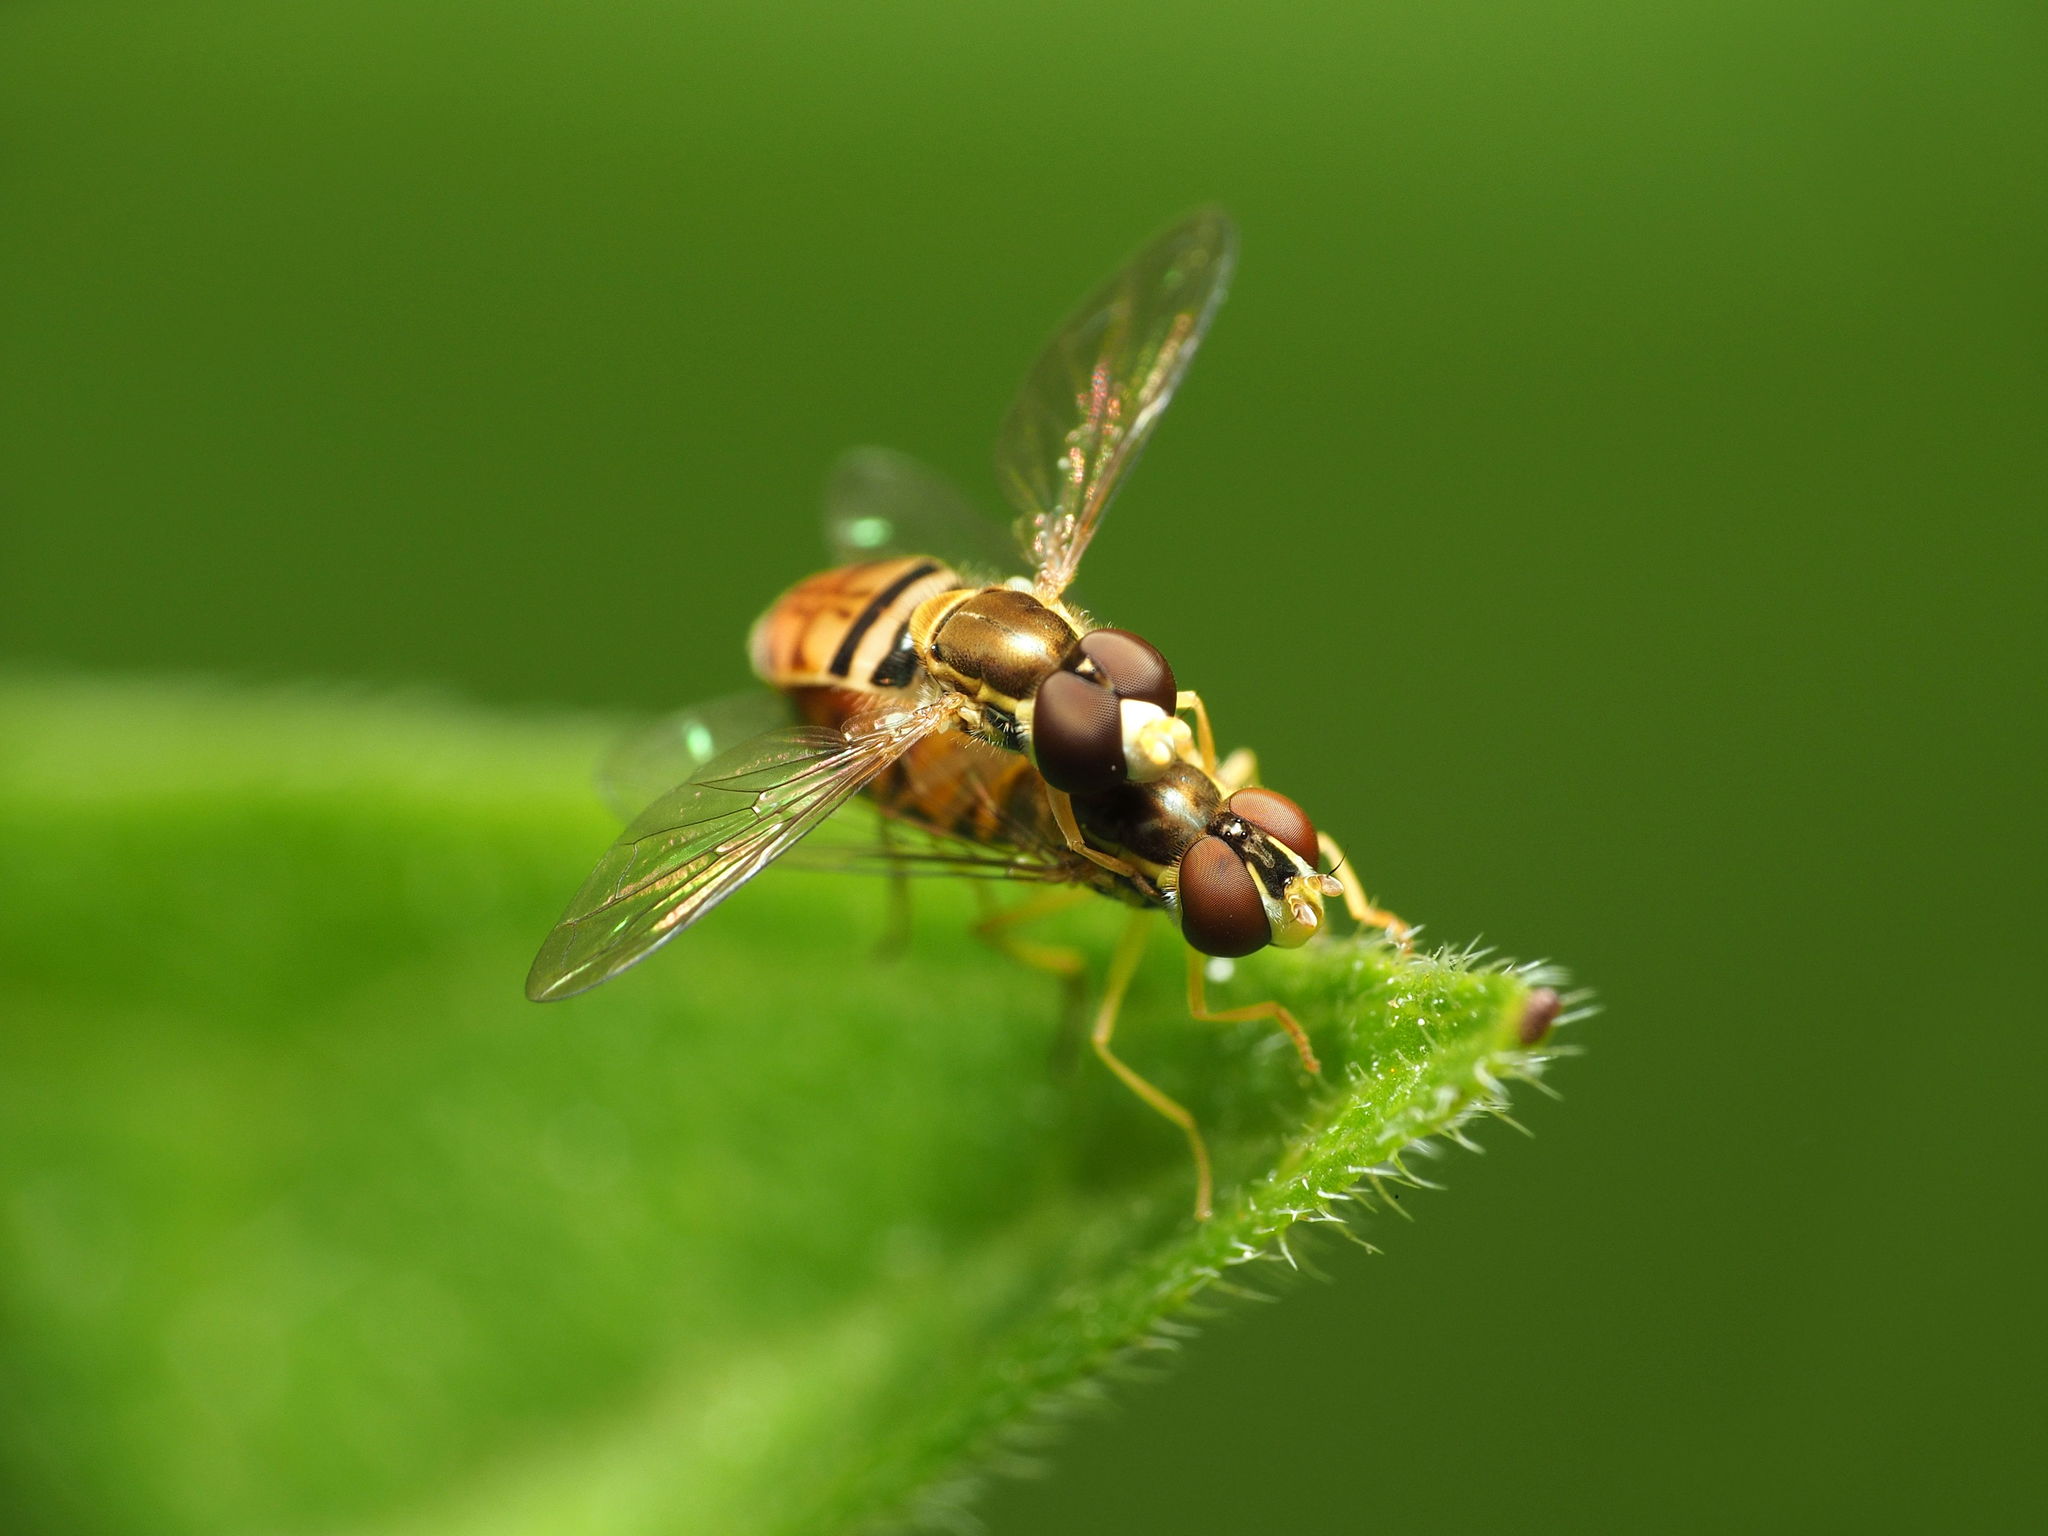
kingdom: Animalia
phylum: Arthropoda
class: Insecta
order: Diptera
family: Syrphidae
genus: Toxomerus
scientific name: Toxomerus marginatus
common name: Syrphid fly
